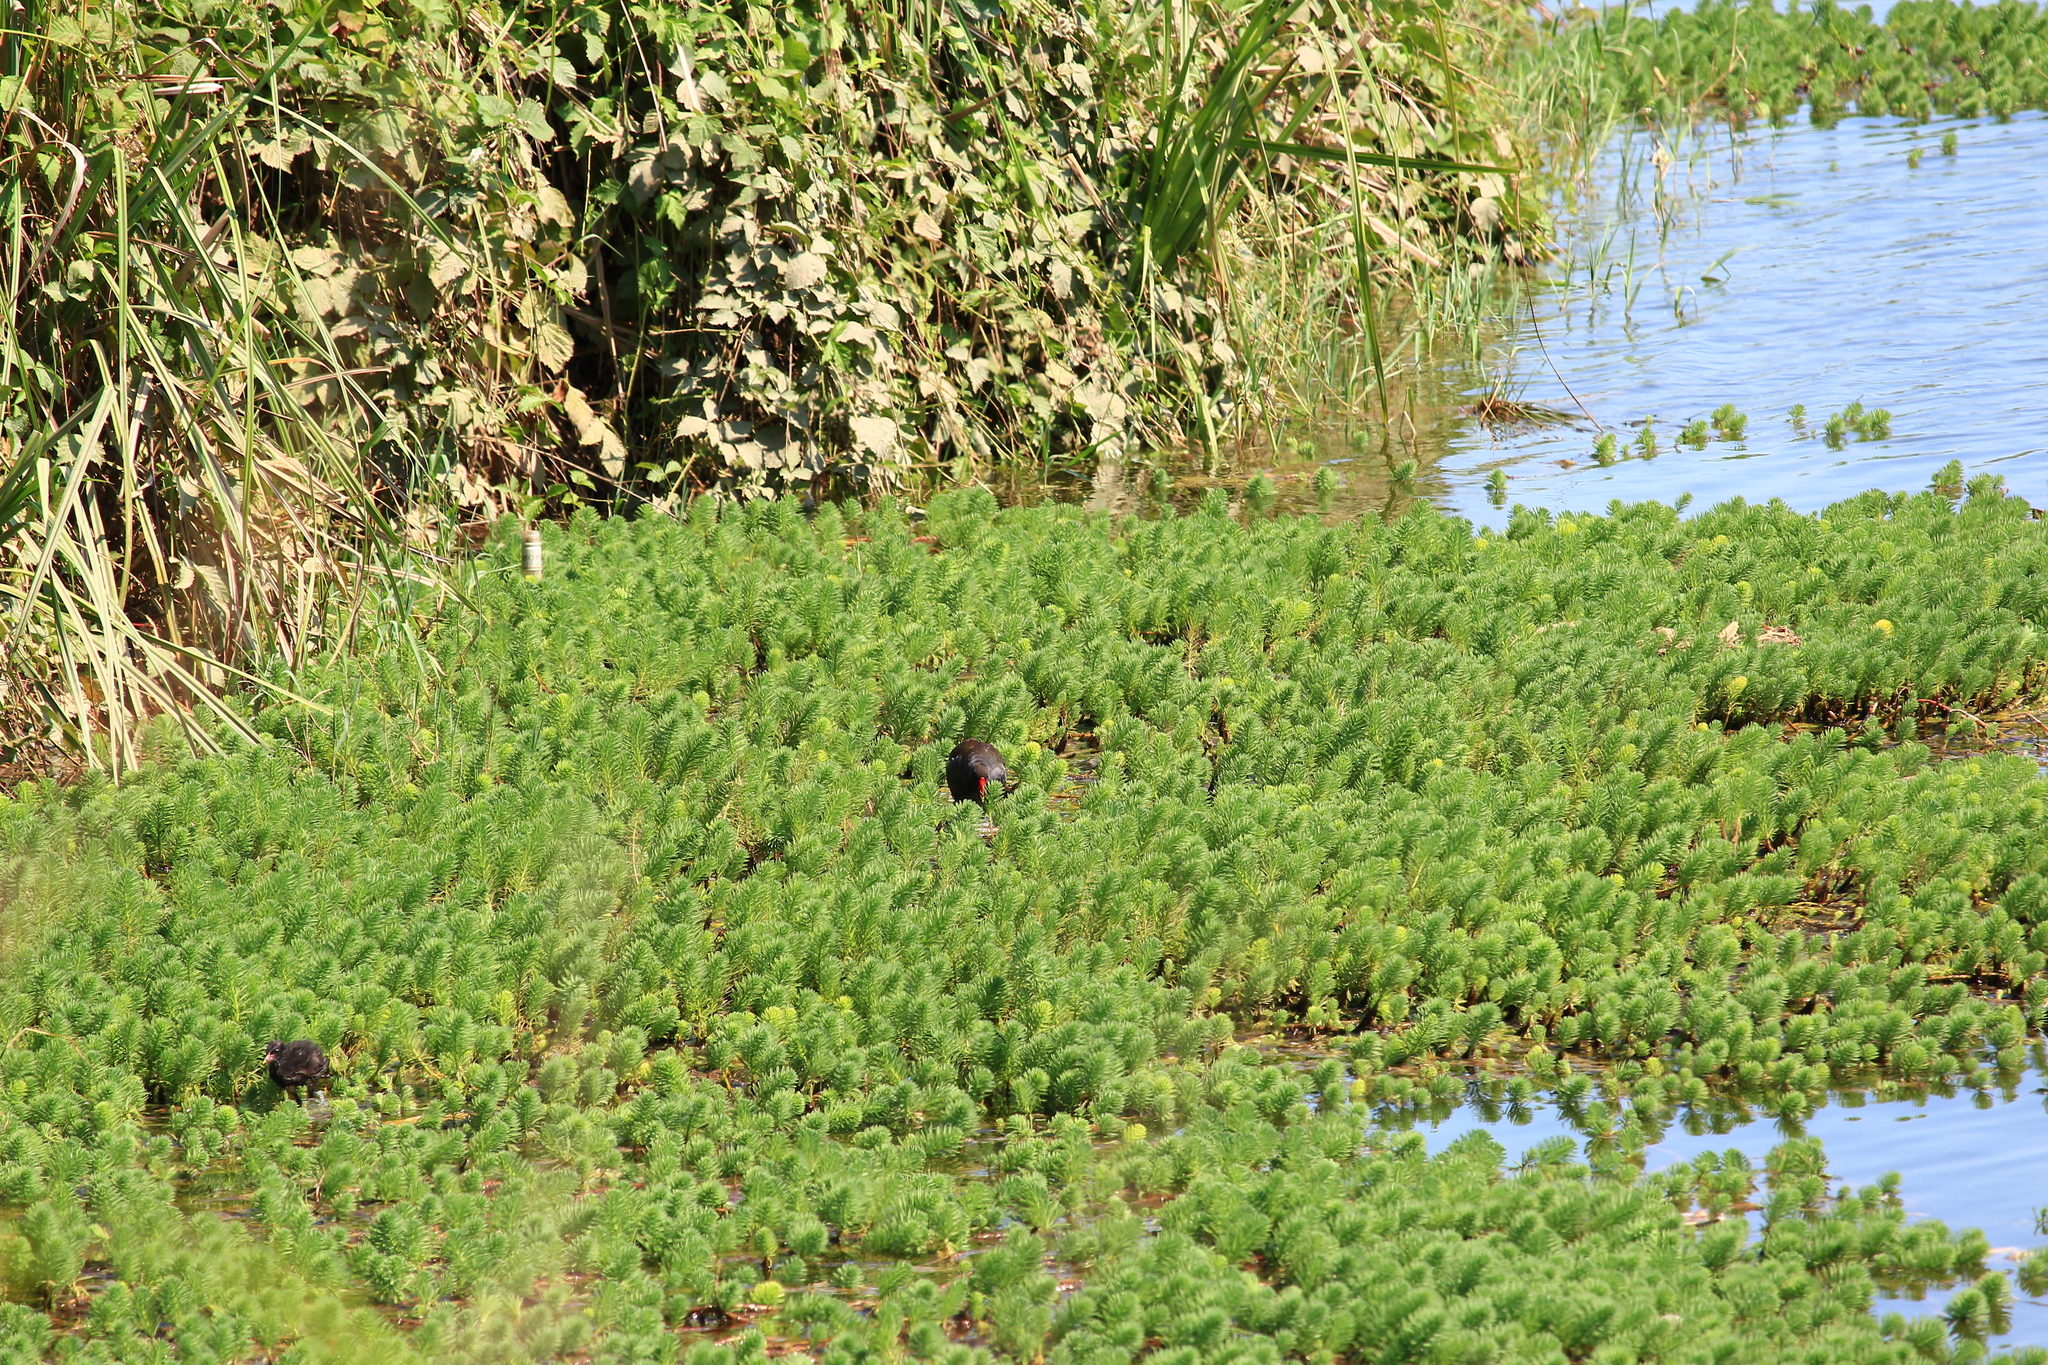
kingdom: Animalia
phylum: Chordata
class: Aves
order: Gruiformes
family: Rallidae
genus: Gallinula
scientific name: Gallinula chloropus
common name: Common moorhen
